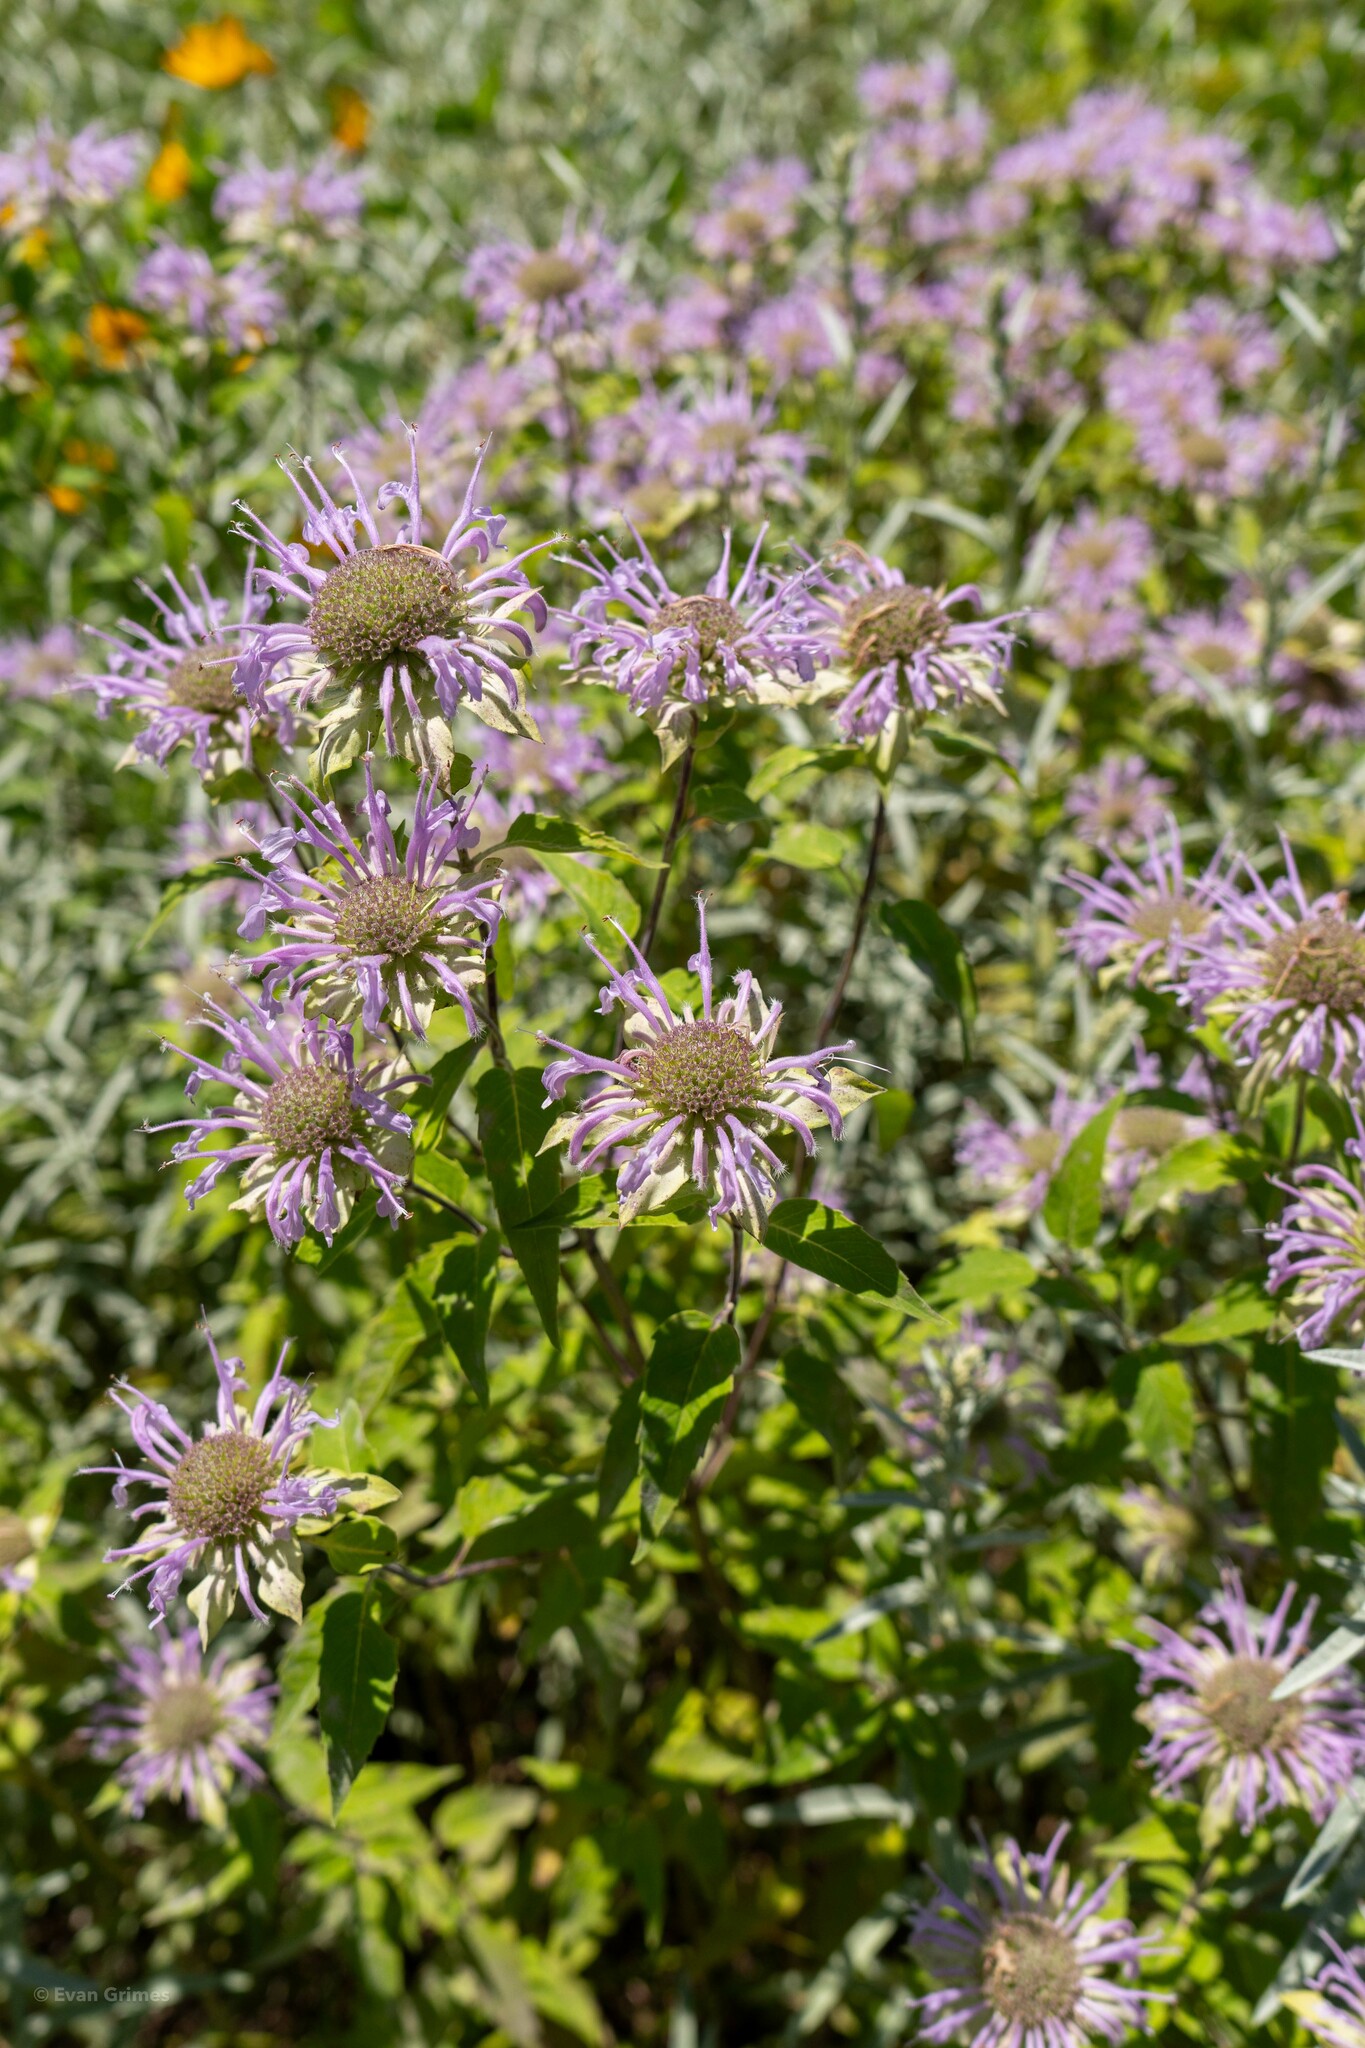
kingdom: Plantae
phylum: Tracheophyta
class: Magnoliopsida
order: Lamiales
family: Lamiaceae
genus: Monarda
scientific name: Monarda fistulosa
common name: Purple beebalm
